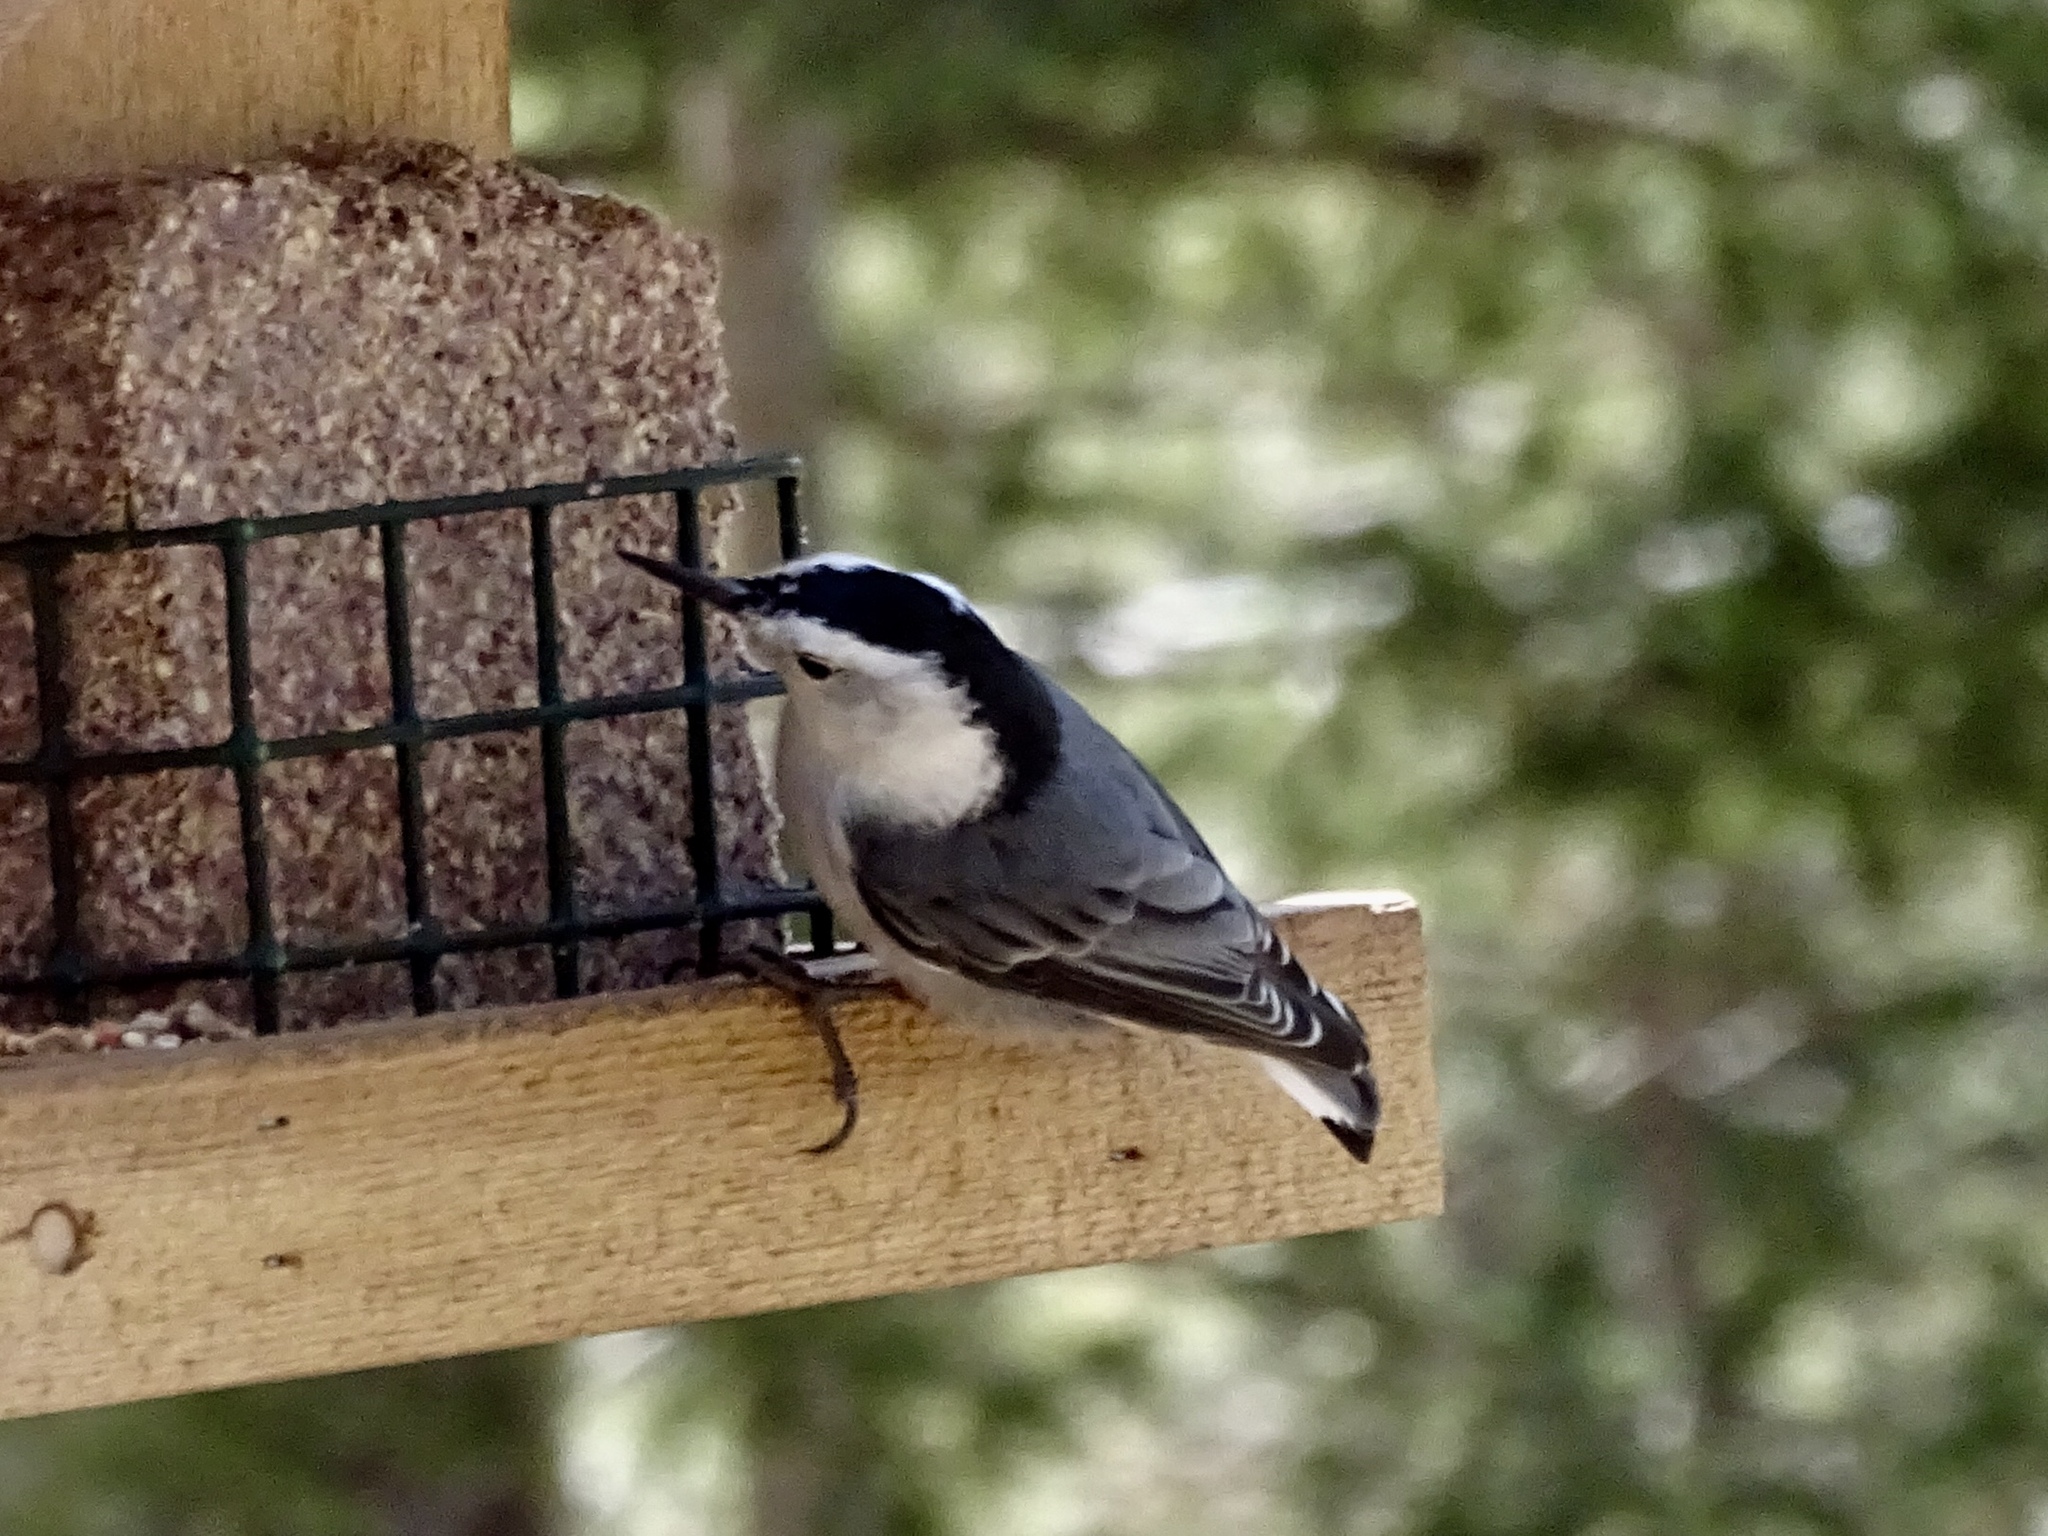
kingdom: Animalia
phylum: Chordata
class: Aves
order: Passeriformes
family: Sittidae
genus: Sitta
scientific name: Sitta carolinensis
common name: White-breasted nuthatch
